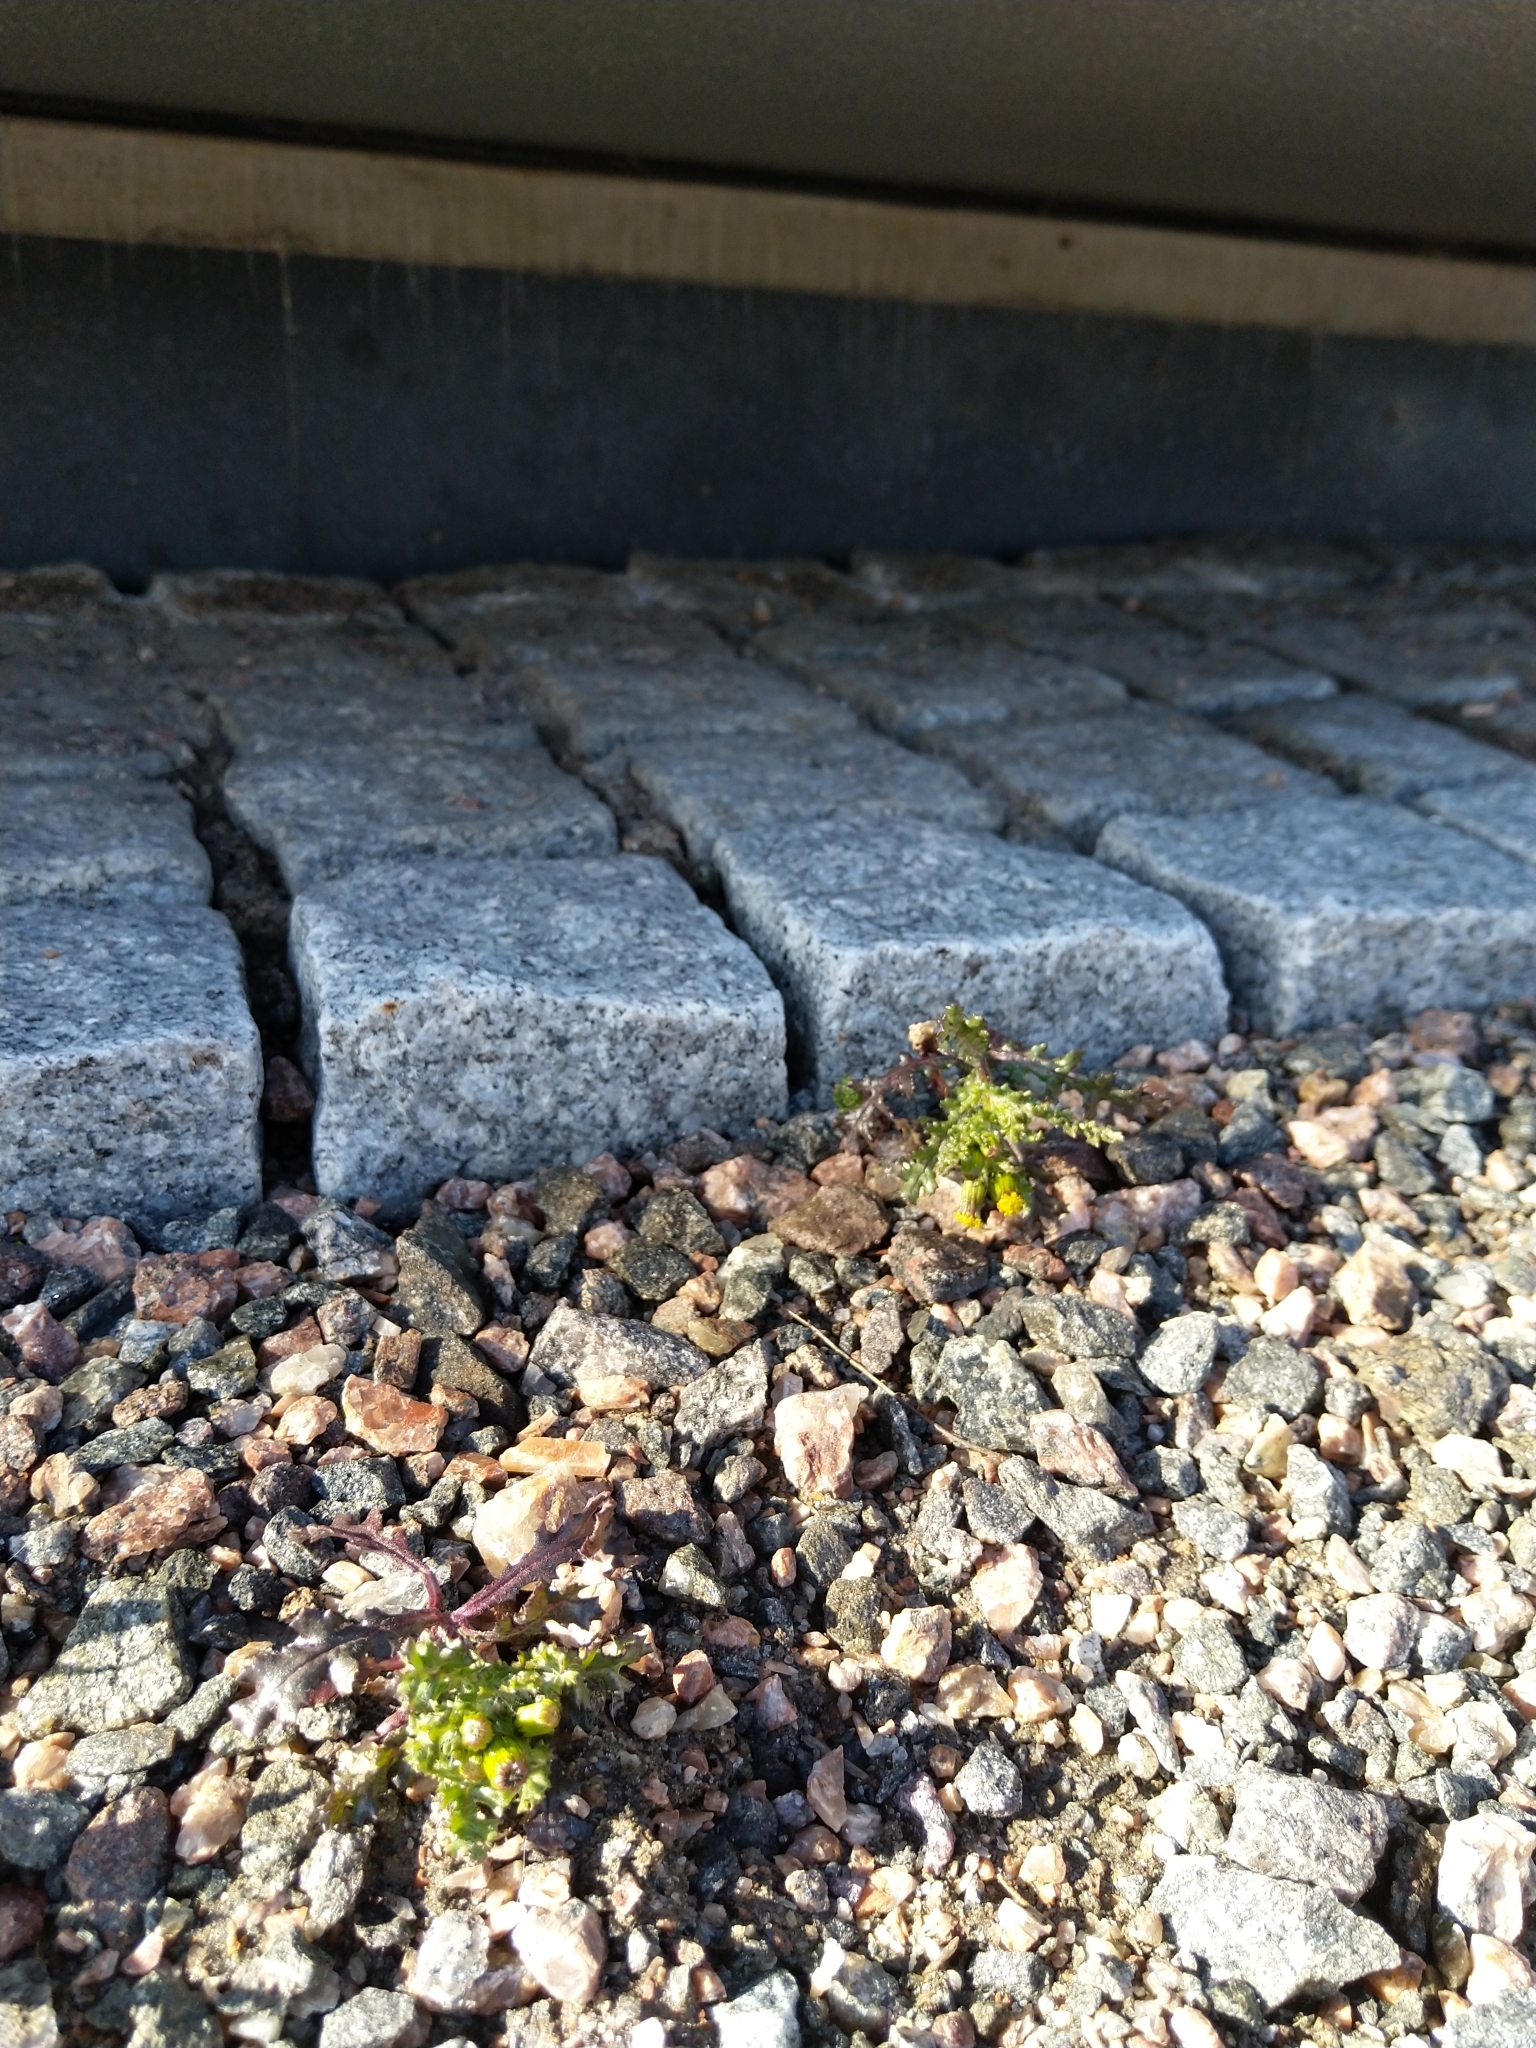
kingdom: Plantae
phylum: Tracheophyta
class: Magnoliopsida
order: Asterales
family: Asteraceae
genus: Senecio
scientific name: Senecio vulgaris
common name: Old-man-in-the-spring
